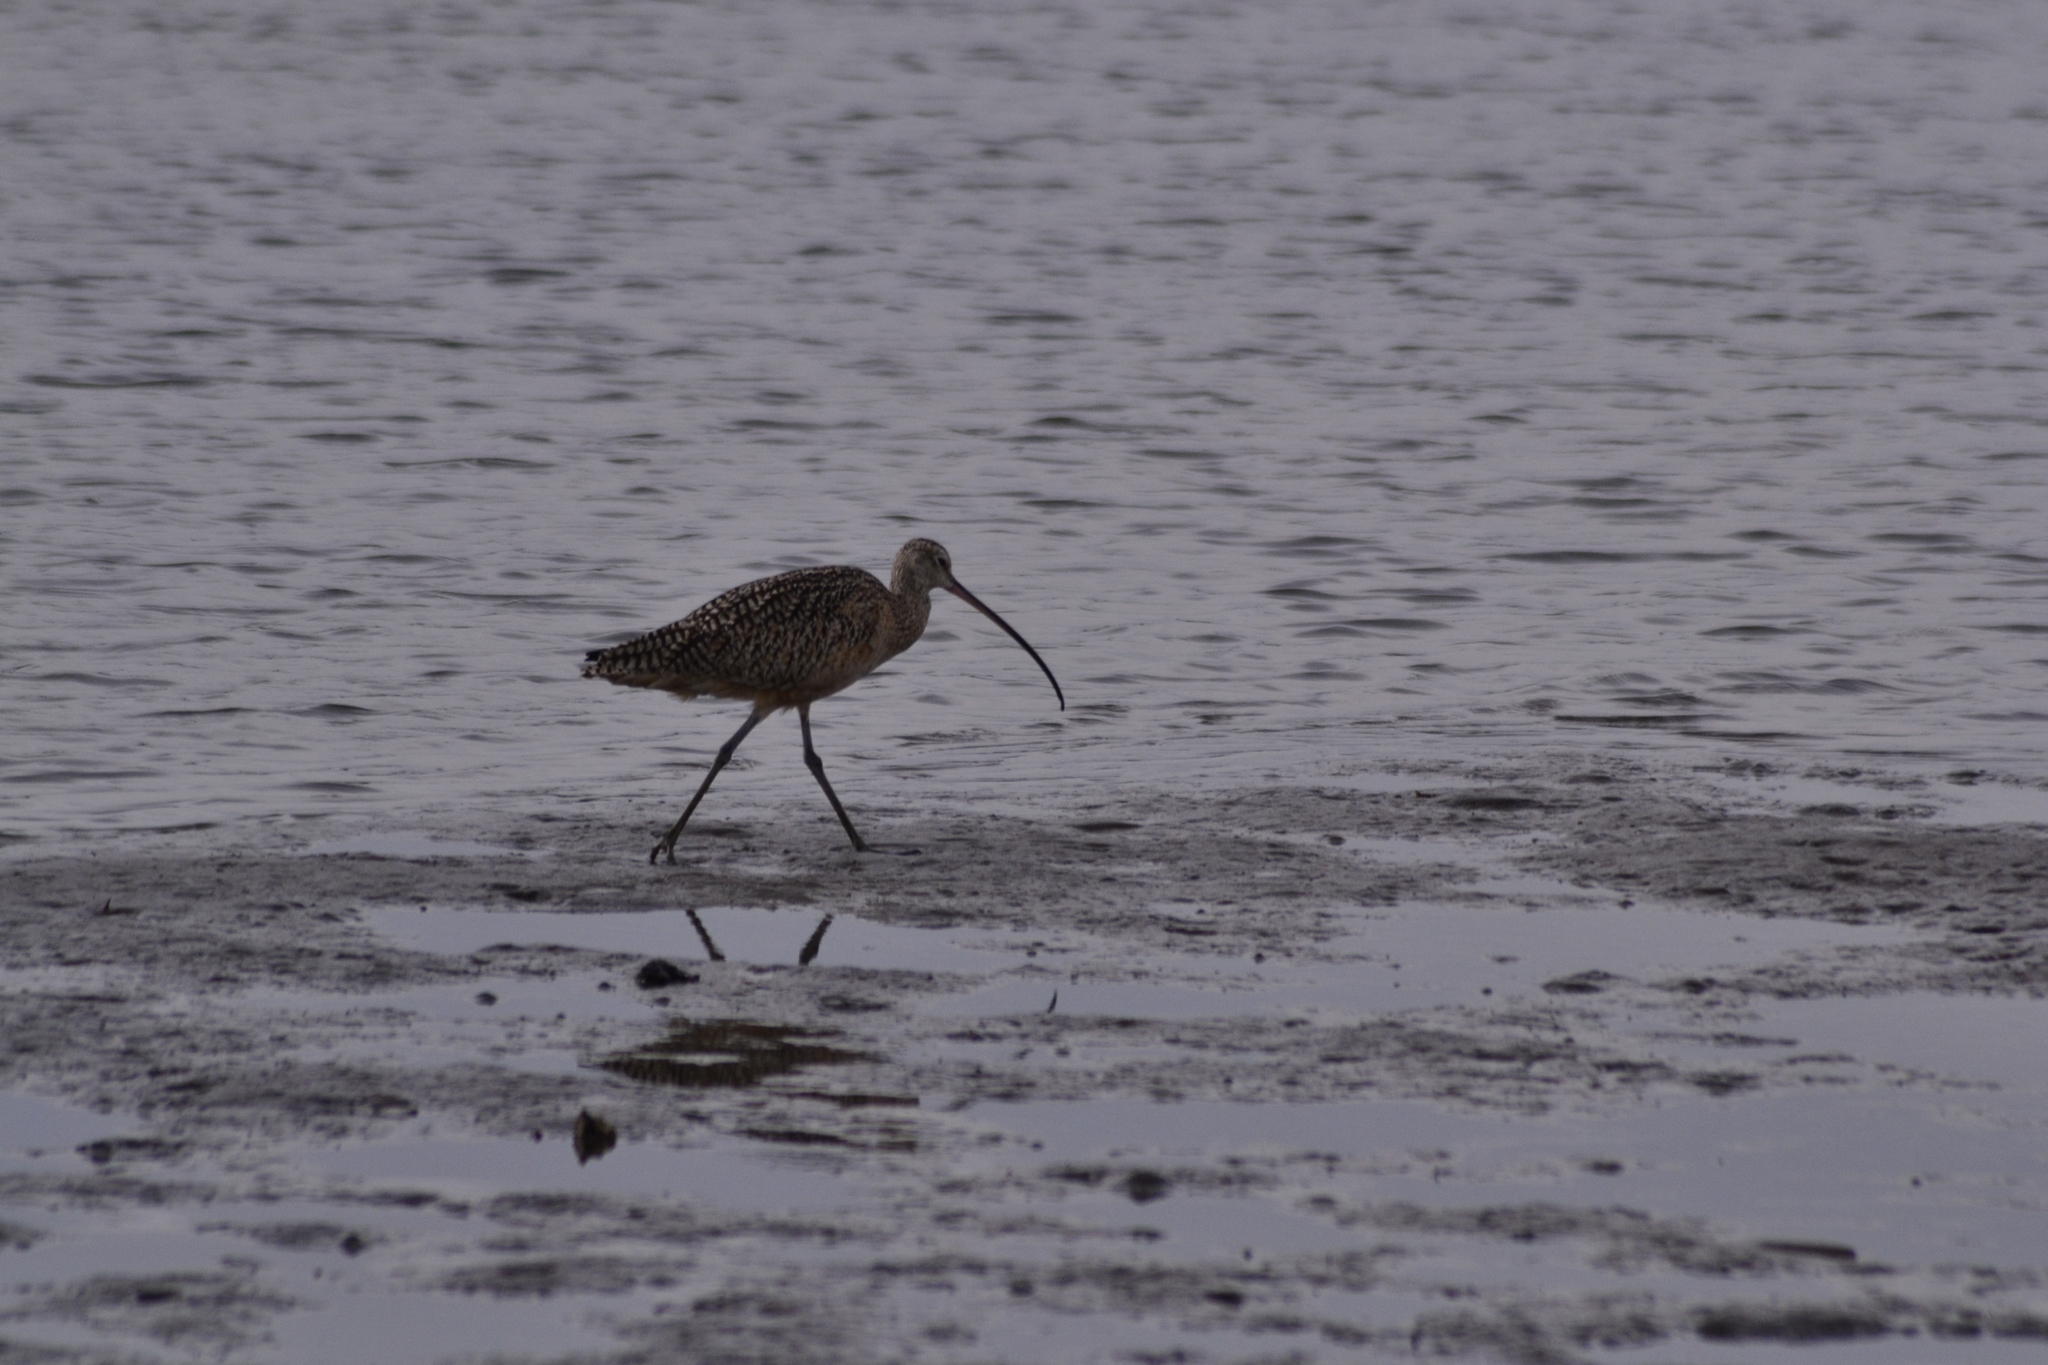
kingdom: Animalia
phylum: Chordata
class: Aves
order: Charadriiformes
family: Scolopacidae
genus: Numenius
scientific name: Numenius americanus
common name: Long-billed curlew
